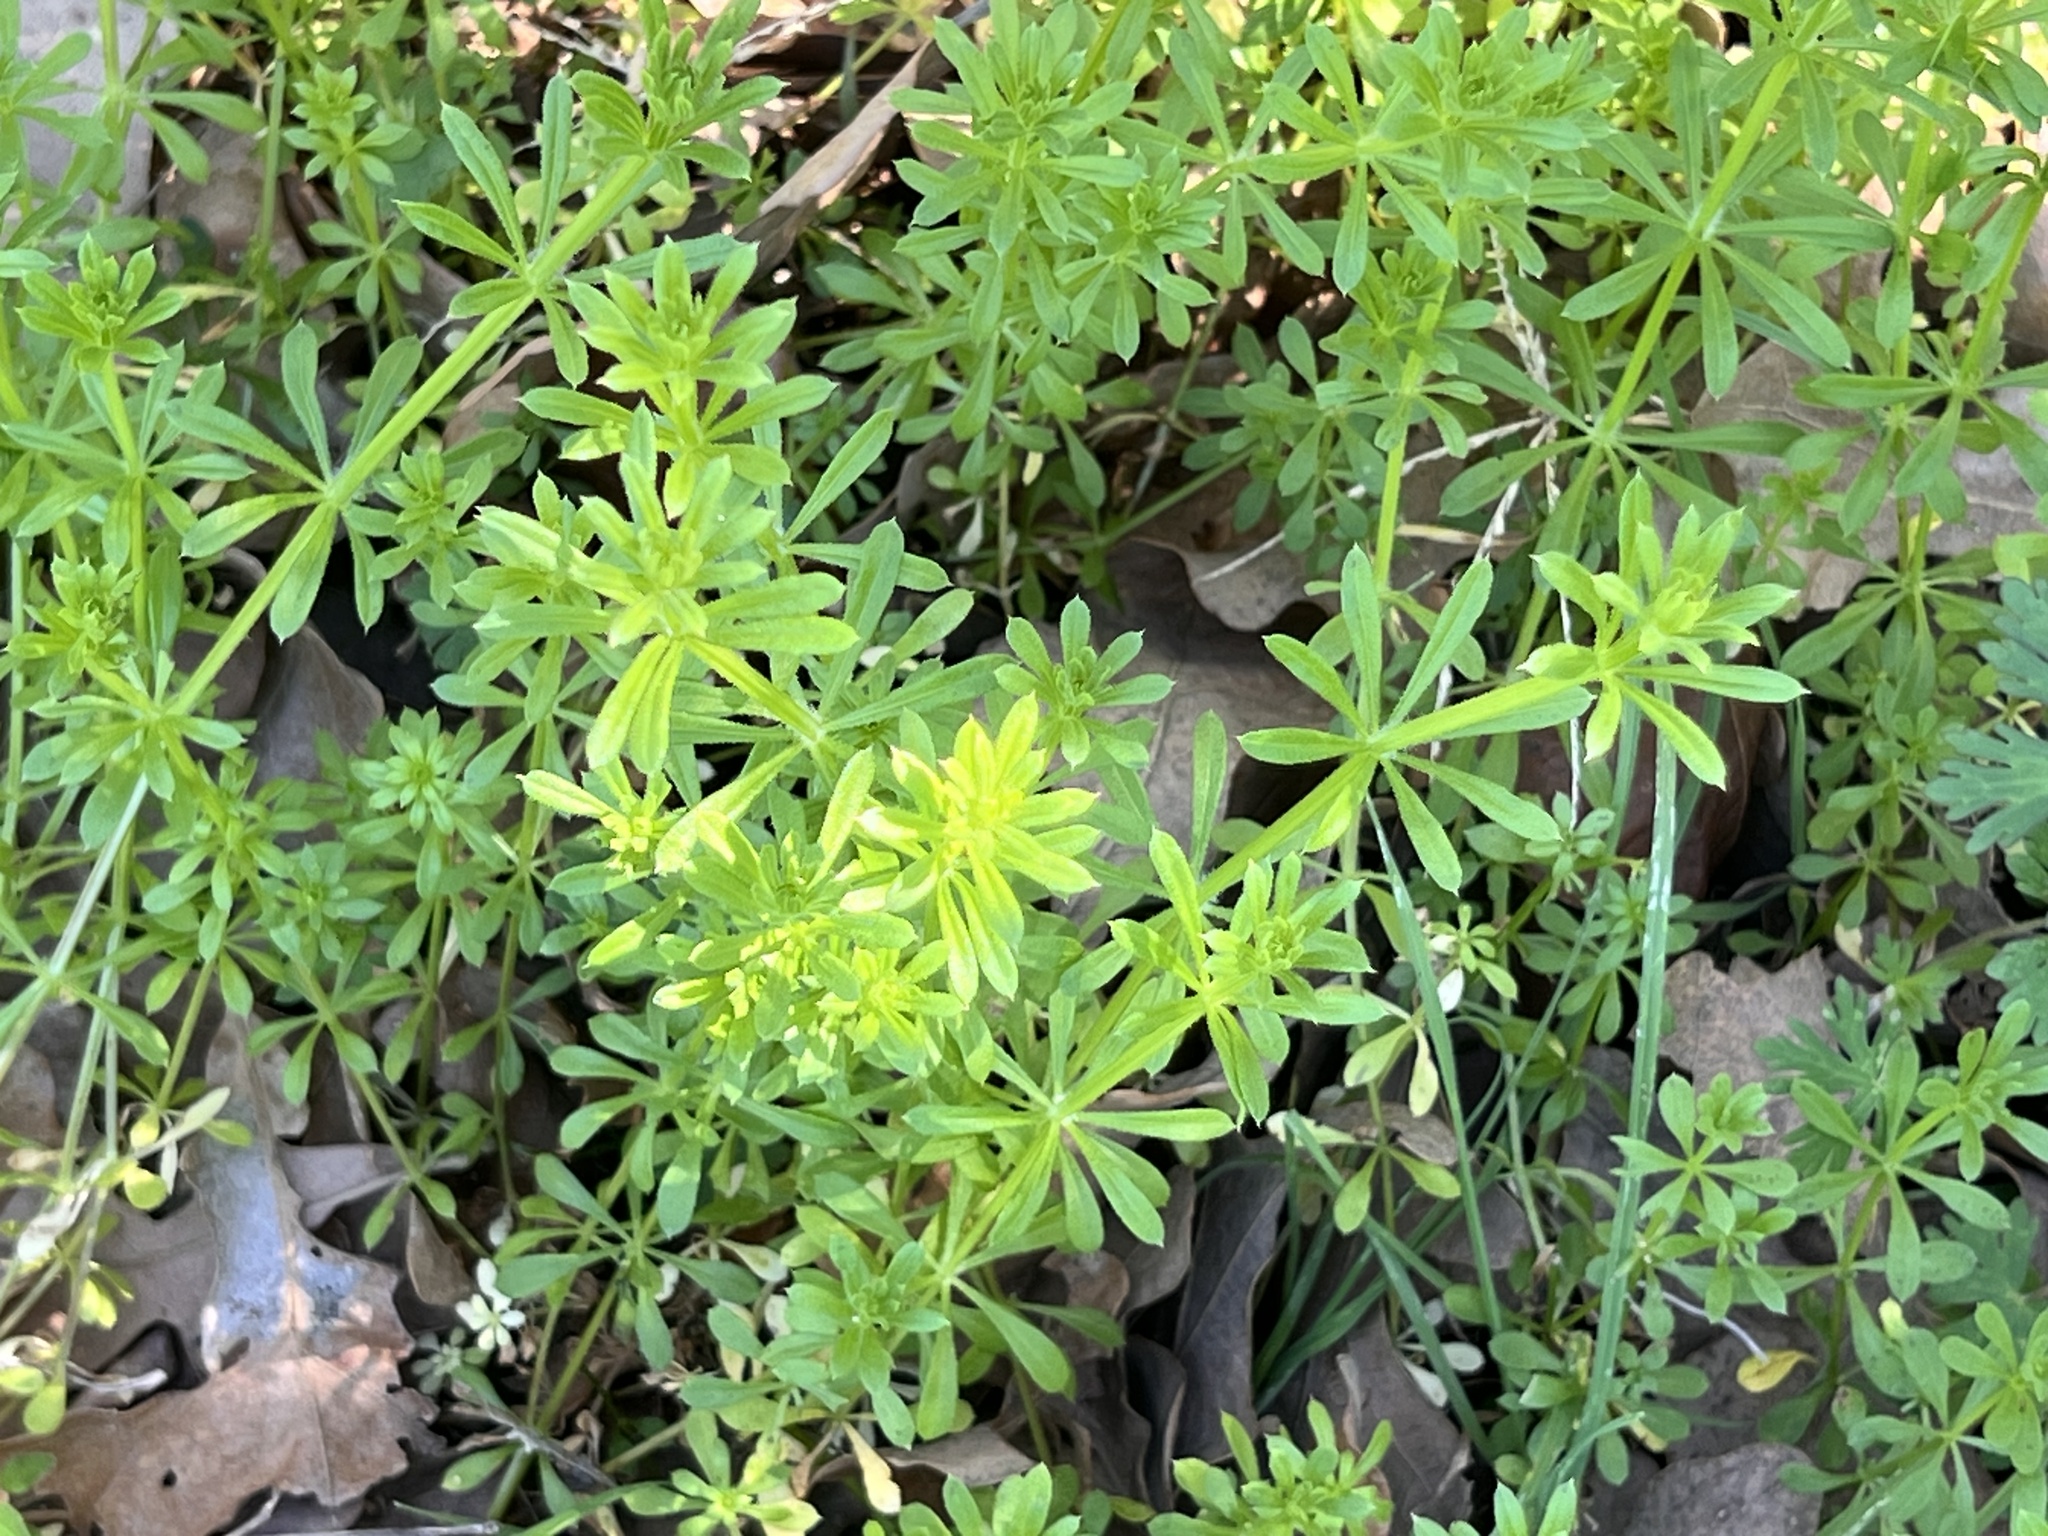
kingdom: Plantae
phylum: Tracheophyta
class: Magnoliopsida
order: Gentianales
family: Rubiaceae
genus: Galium
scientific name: Galium aparine
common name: Cleavers
